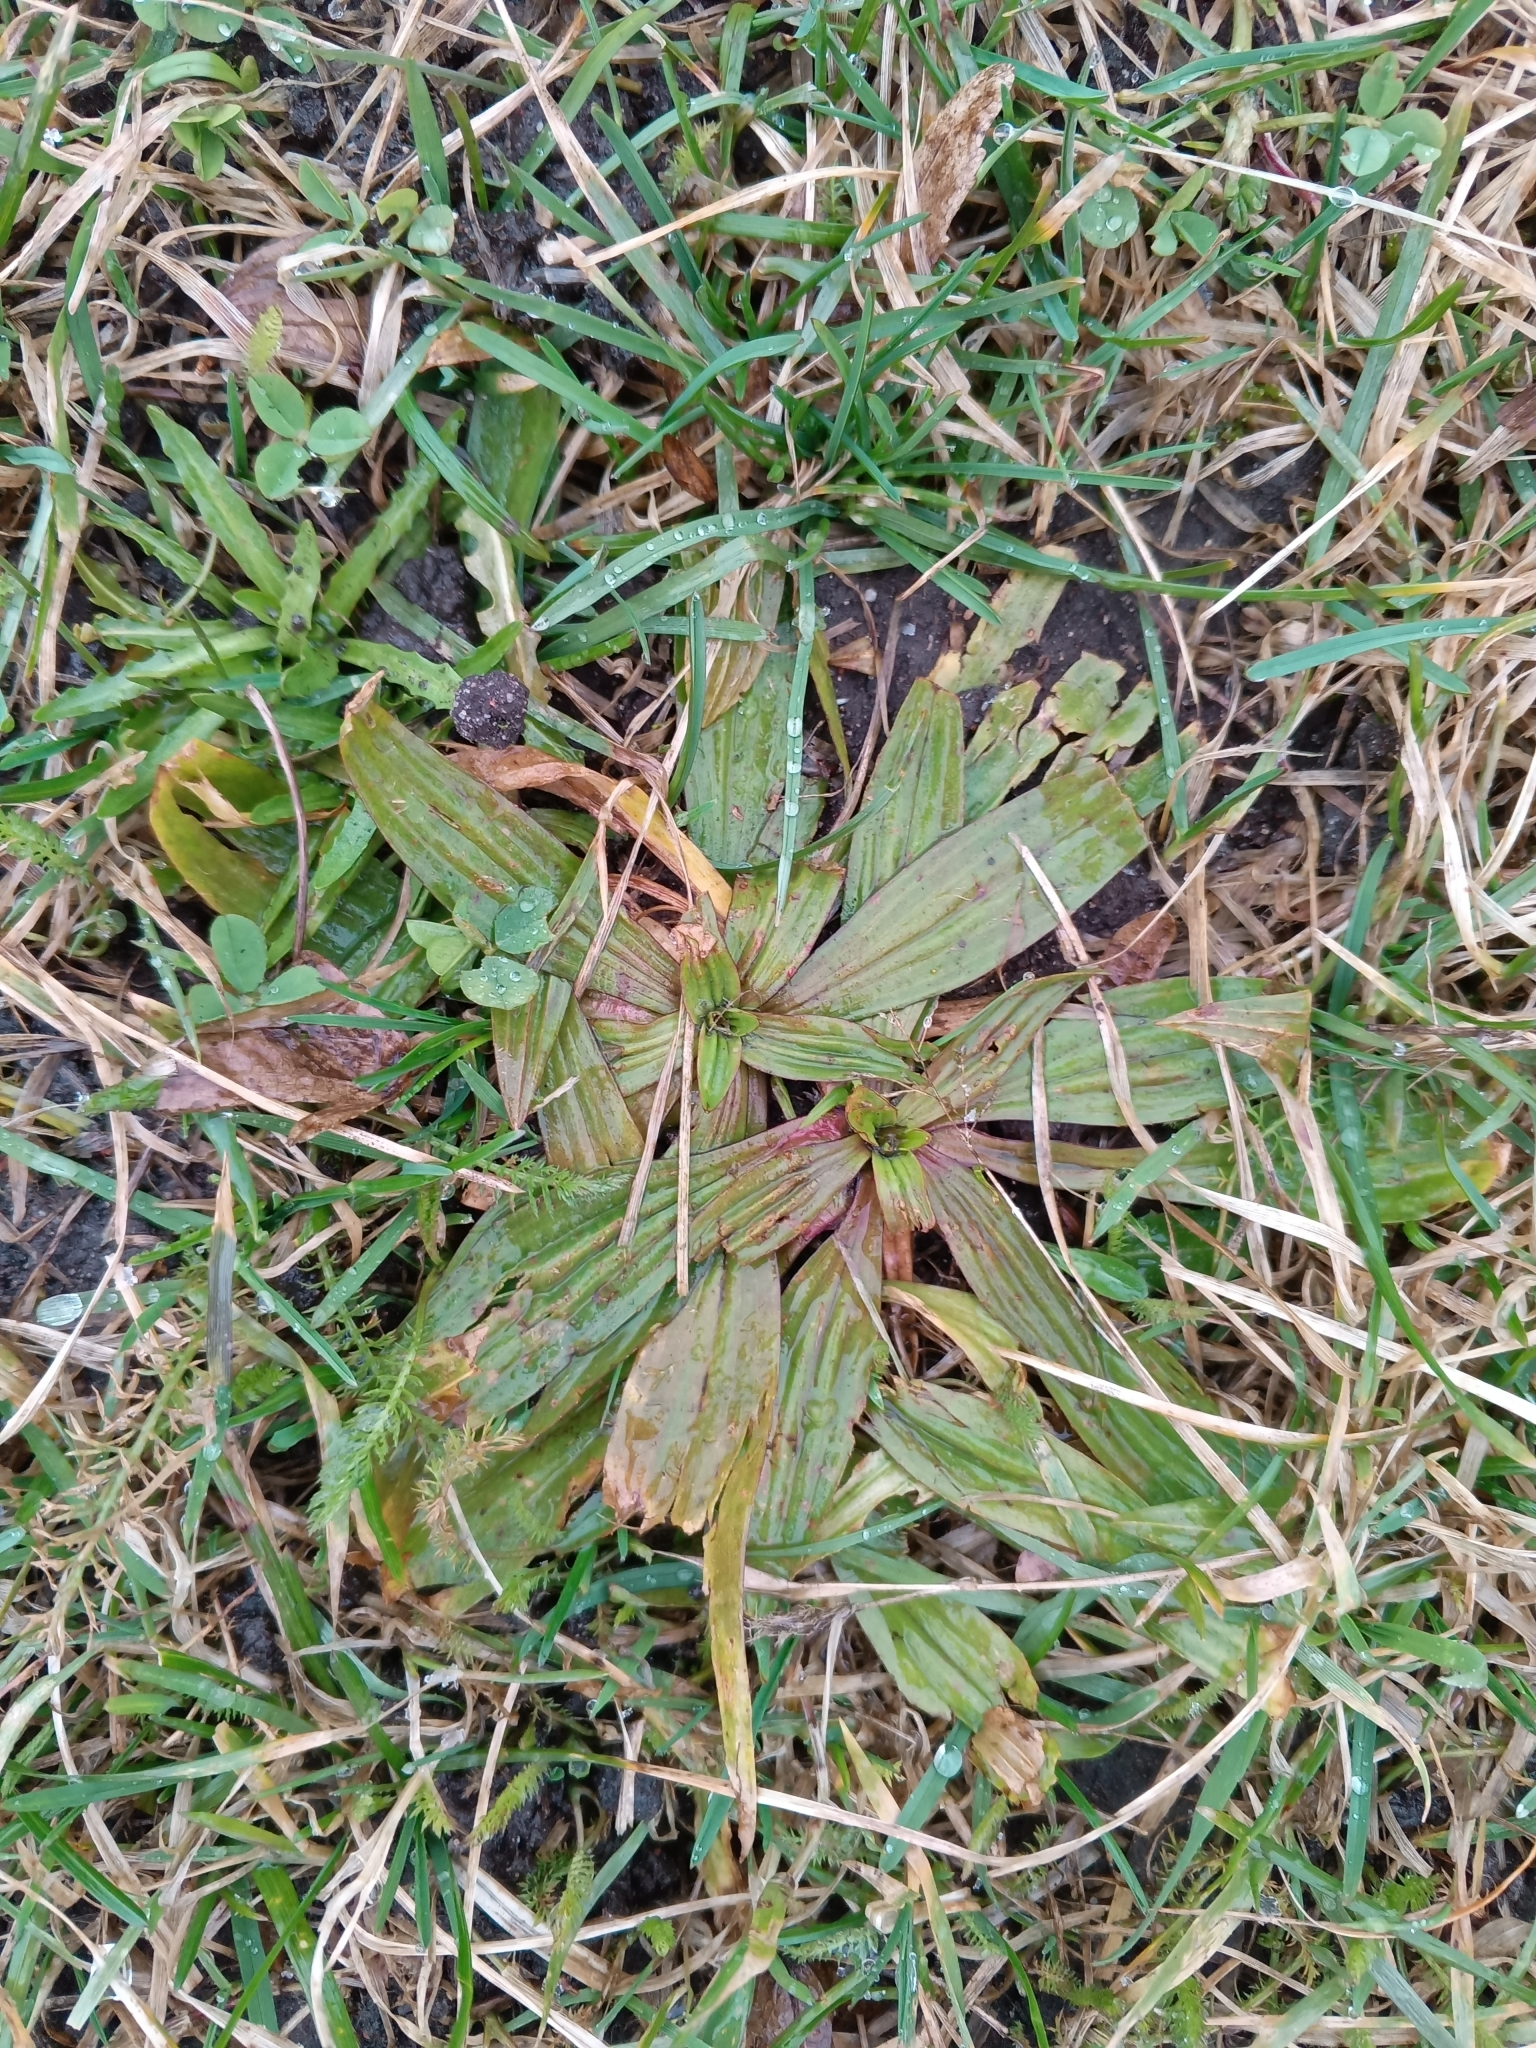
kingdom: Plantae
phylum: Tracheophyta
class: Magnoliopsida
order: Lamiales
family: Plantaginaceae
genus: Plantago
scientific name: Plantago lanceolata
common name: Ribwort plantain
